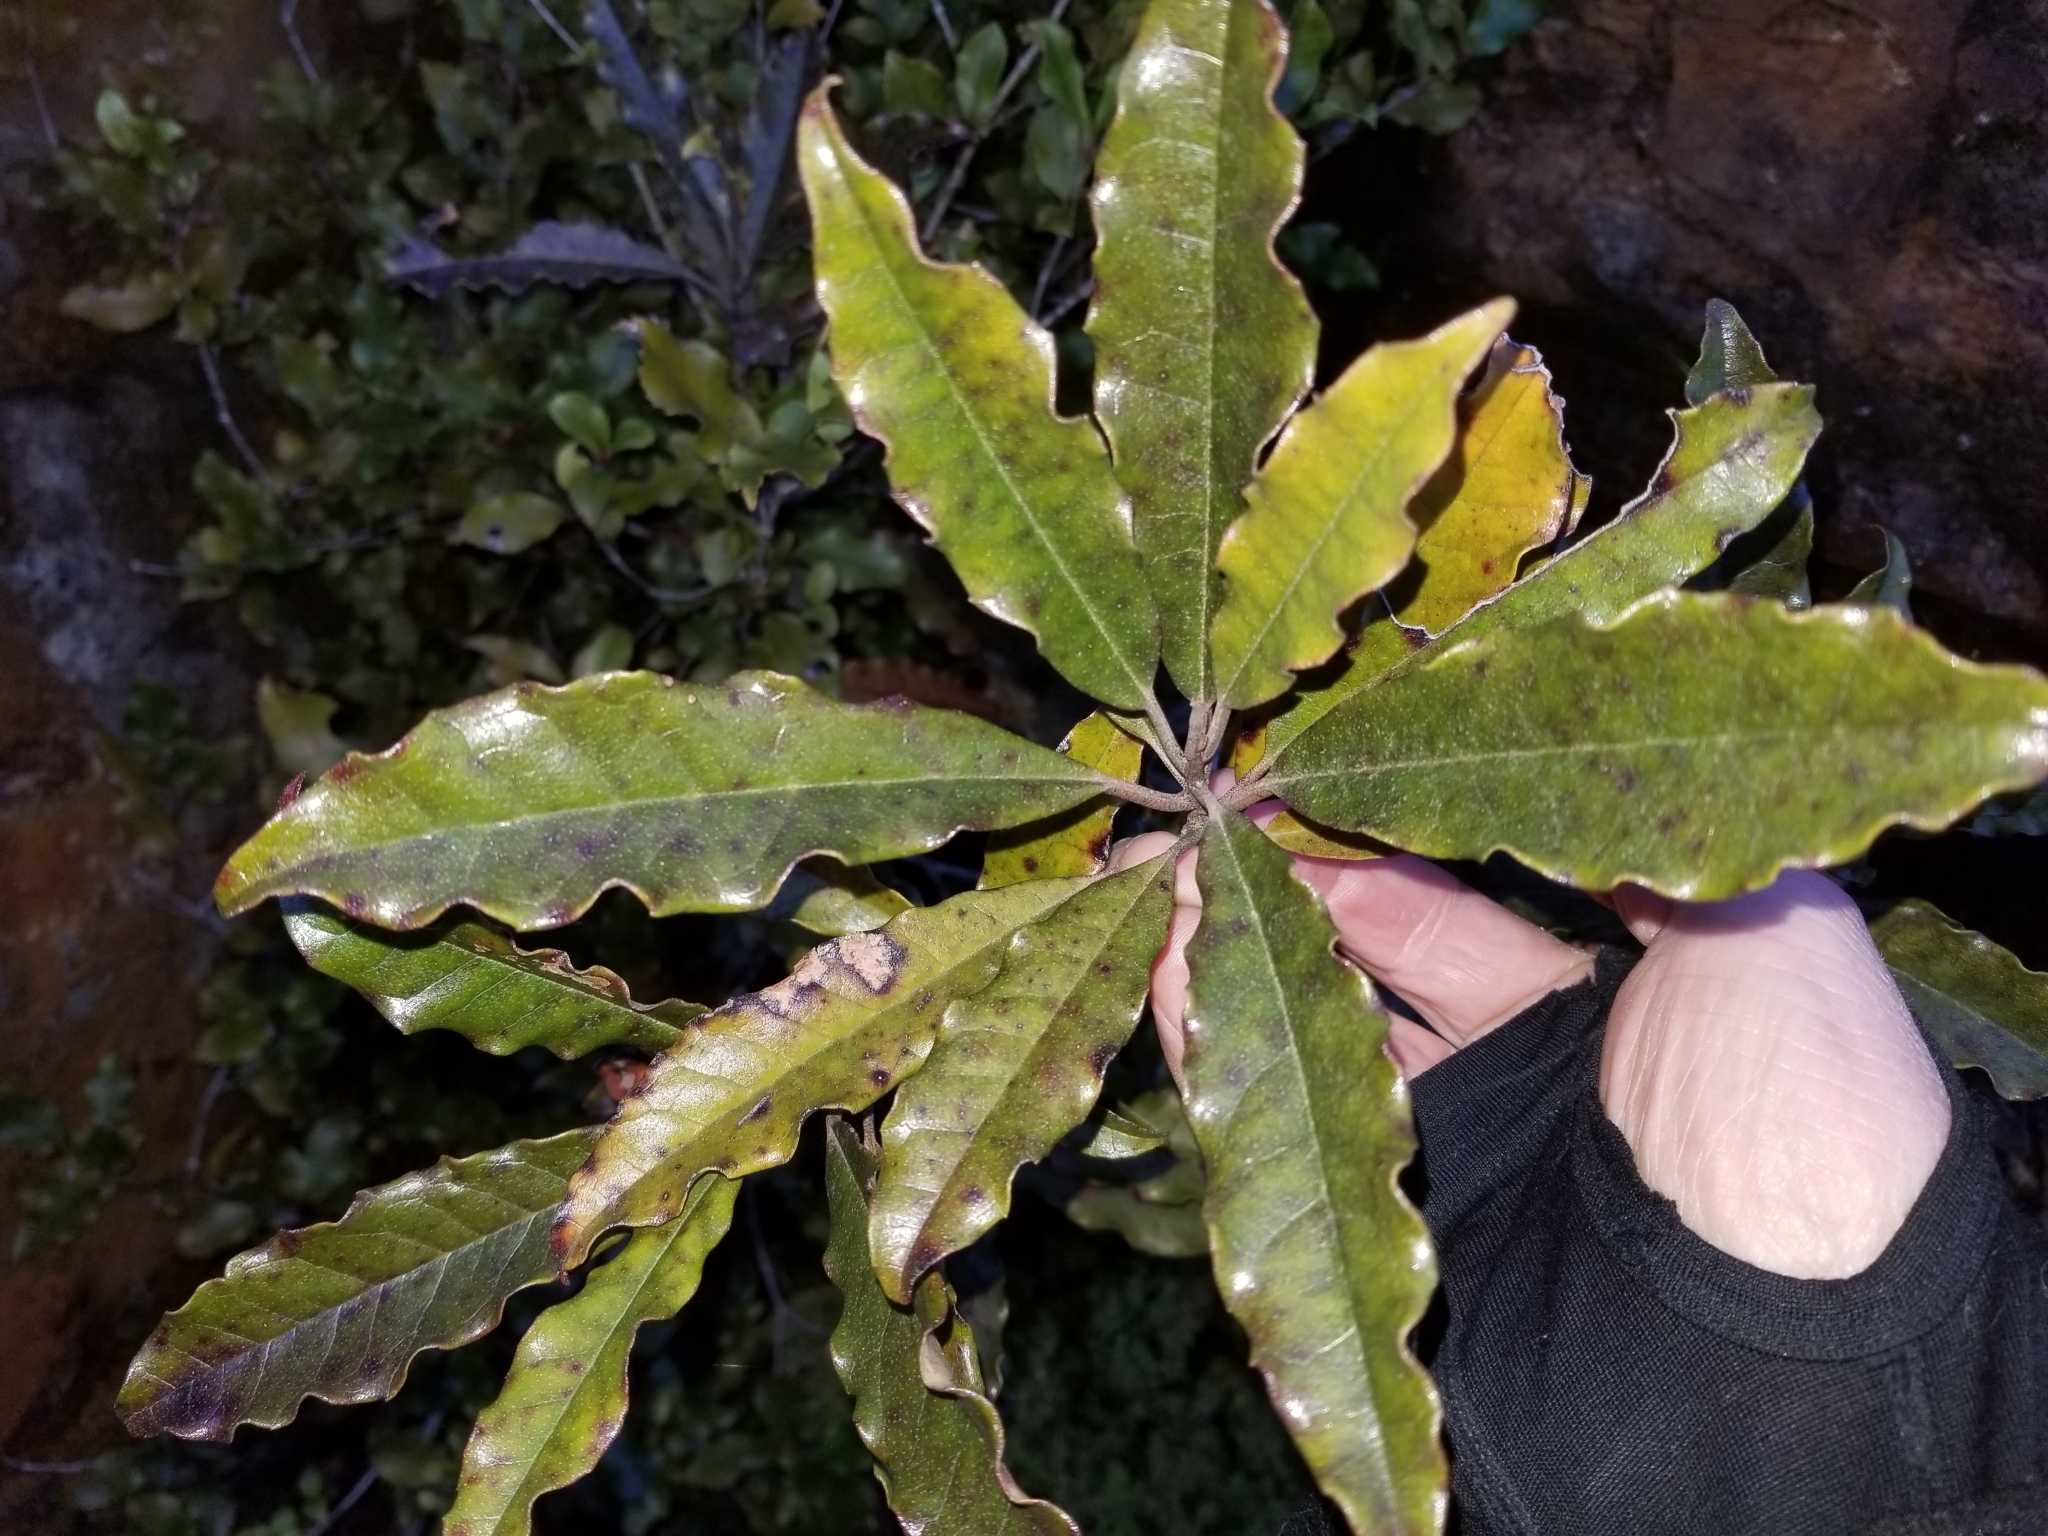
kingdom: Plantae
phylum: Tracheophyta
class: Magnoliopsida
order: Paracryphiales
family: Paracryphiaceae
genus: Quintinia
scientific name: Quintinia serrata
